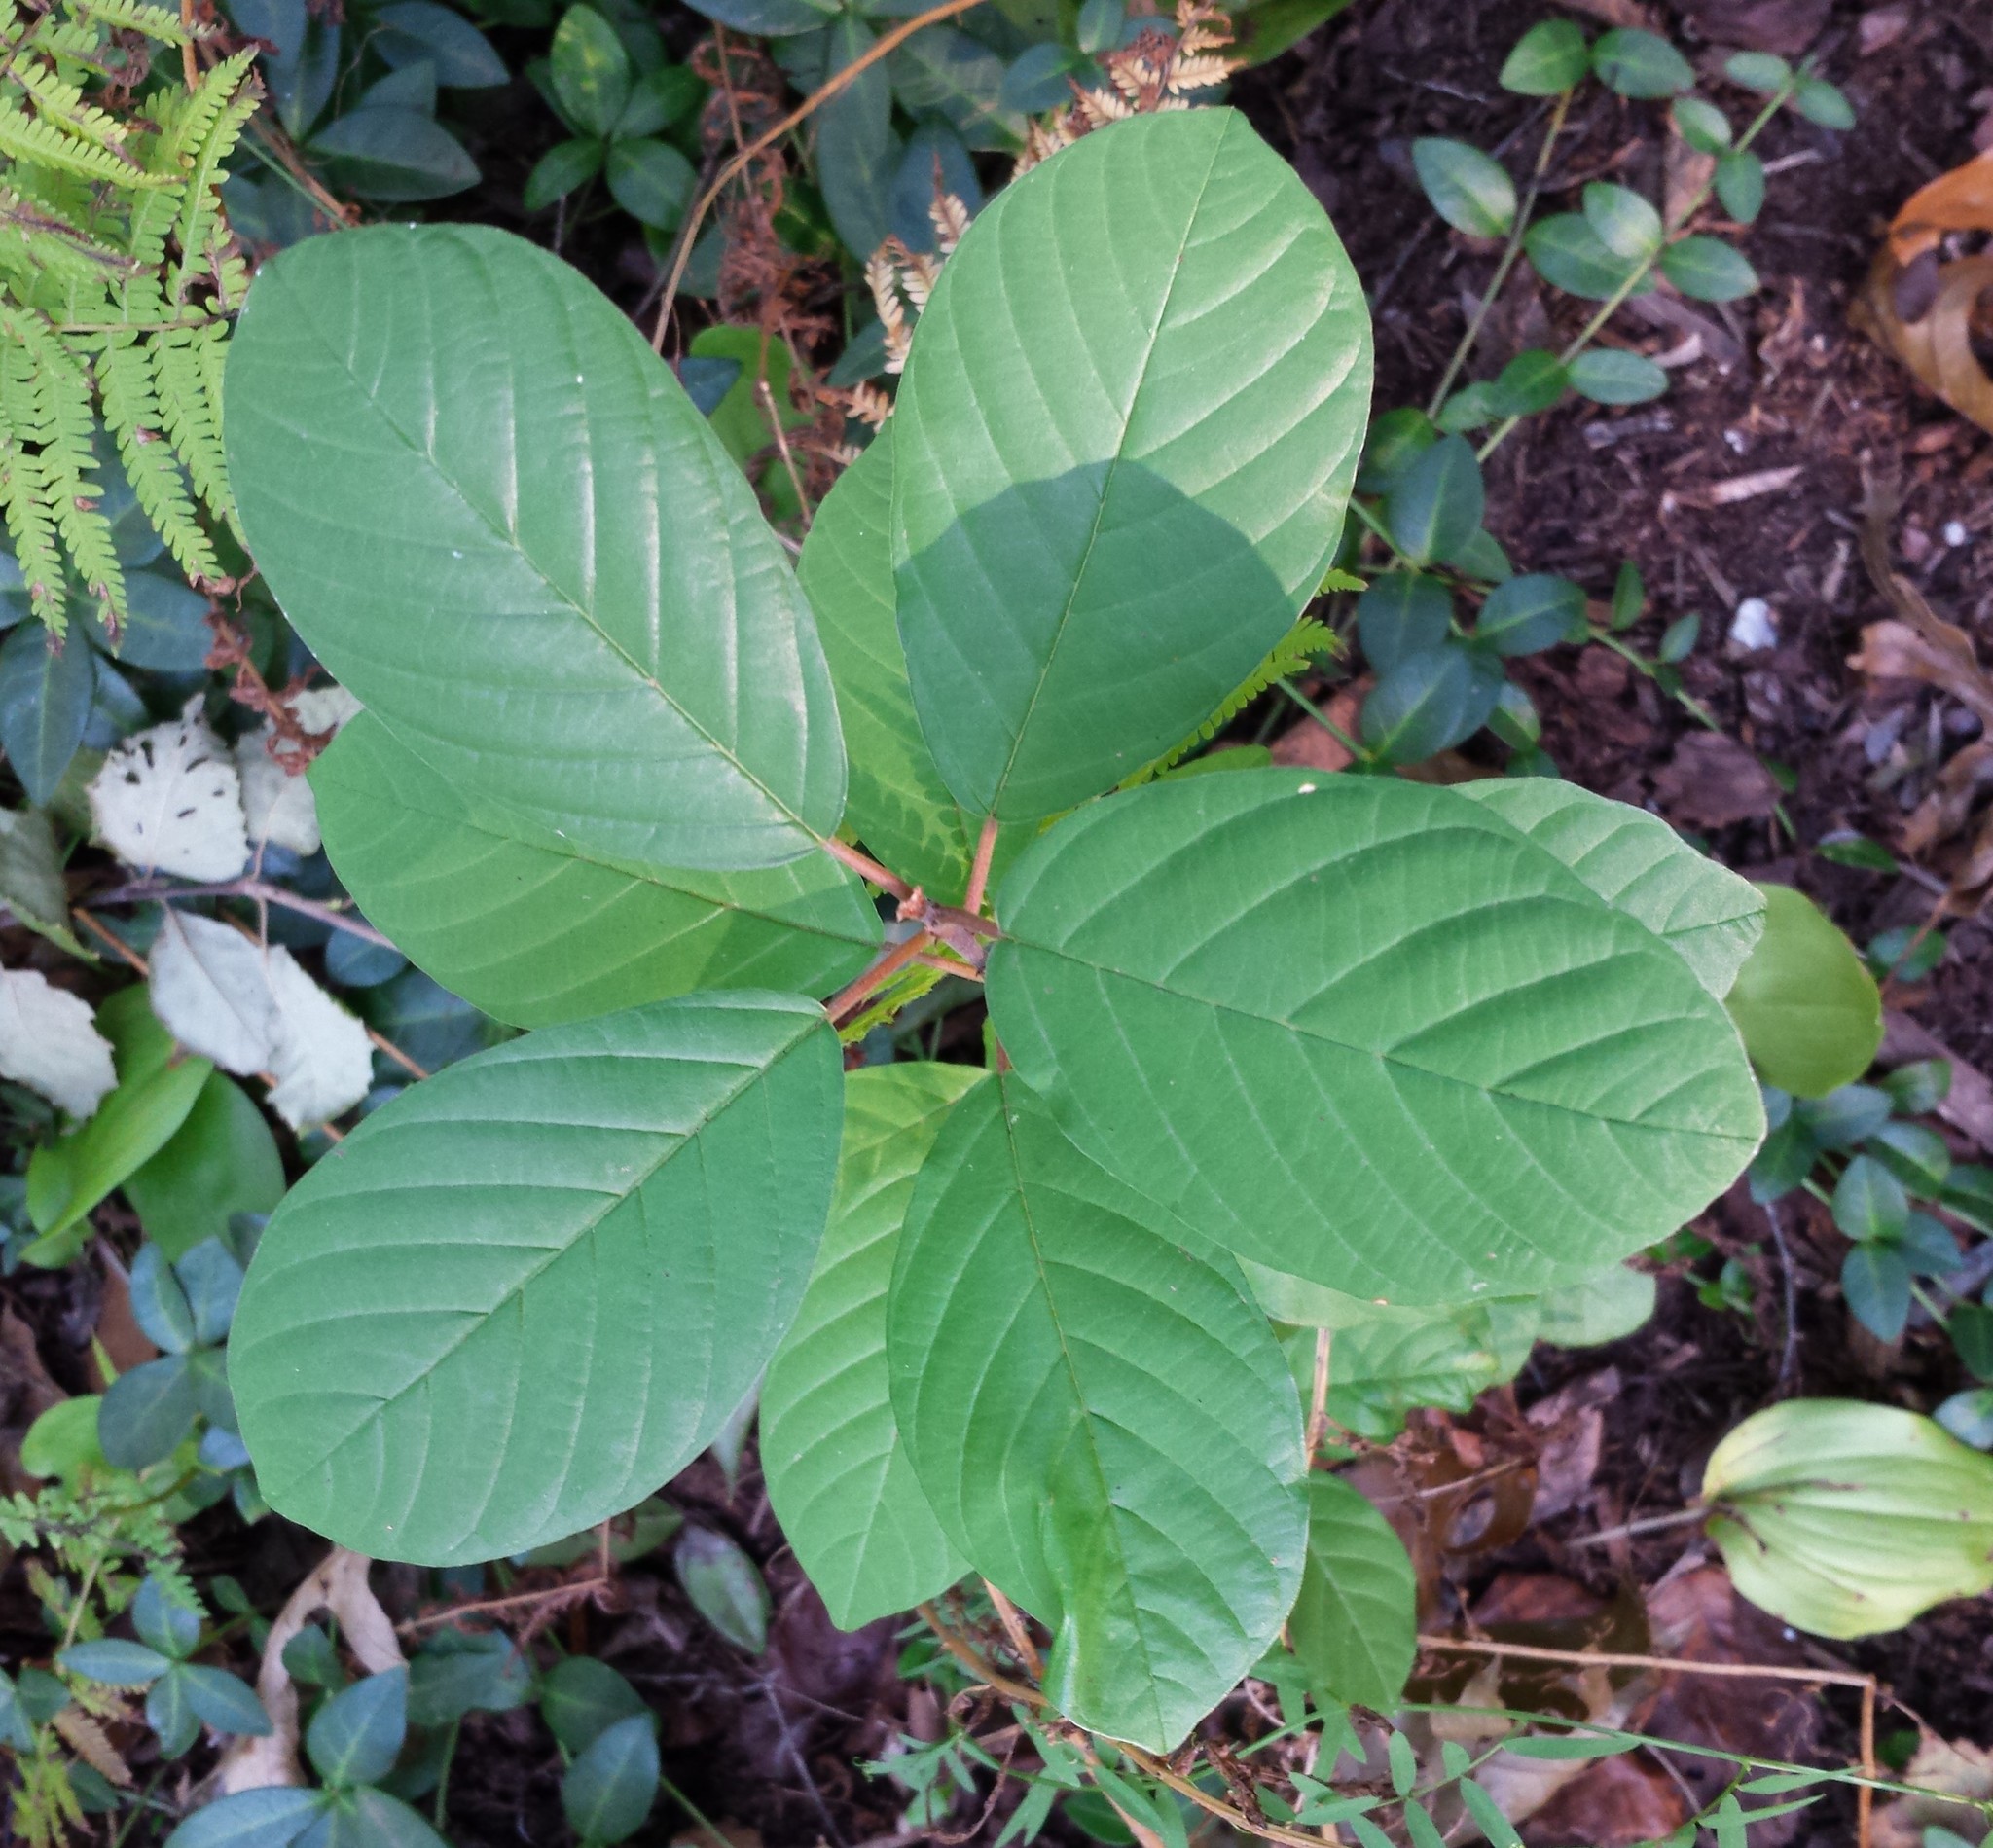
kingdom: Plantae
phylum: Tracheophyta
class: Magnoliopsida
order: Rosales
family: Rhamnaceae
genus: Frangula
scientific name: Frangula alnus
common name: Alder buckthorn
